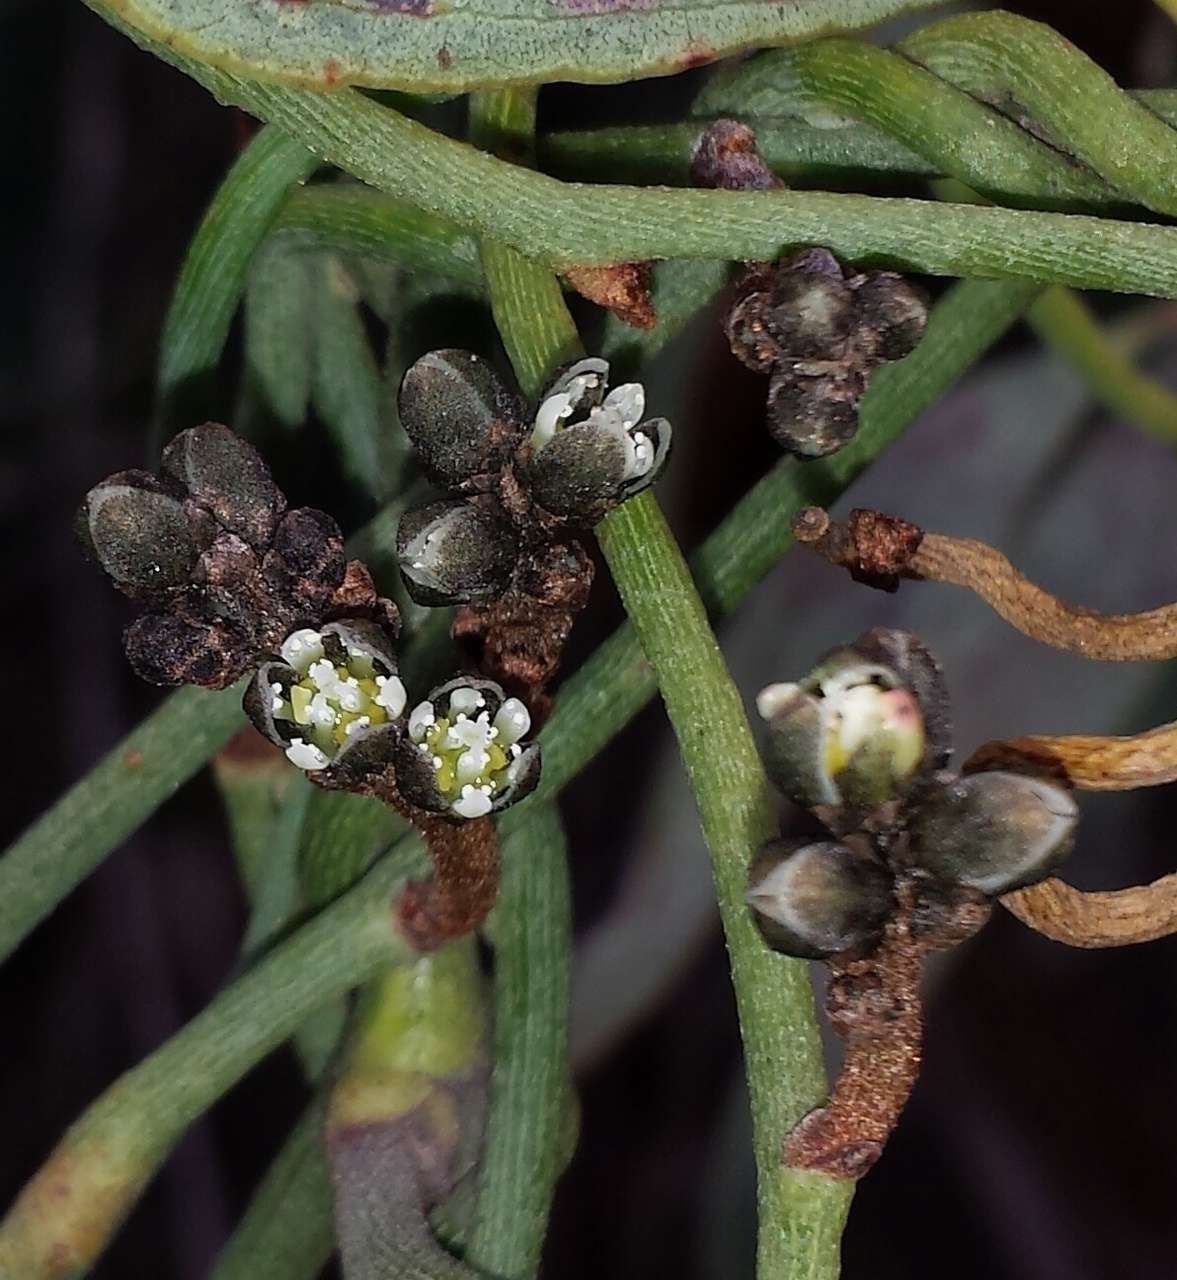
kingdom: Plantae
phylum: Tracheophyta
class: Magnoliopsida
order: Laurales
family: Lauraceae
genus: Cassytha
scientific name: Cassytha melantha
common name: Mallee stranglevine
